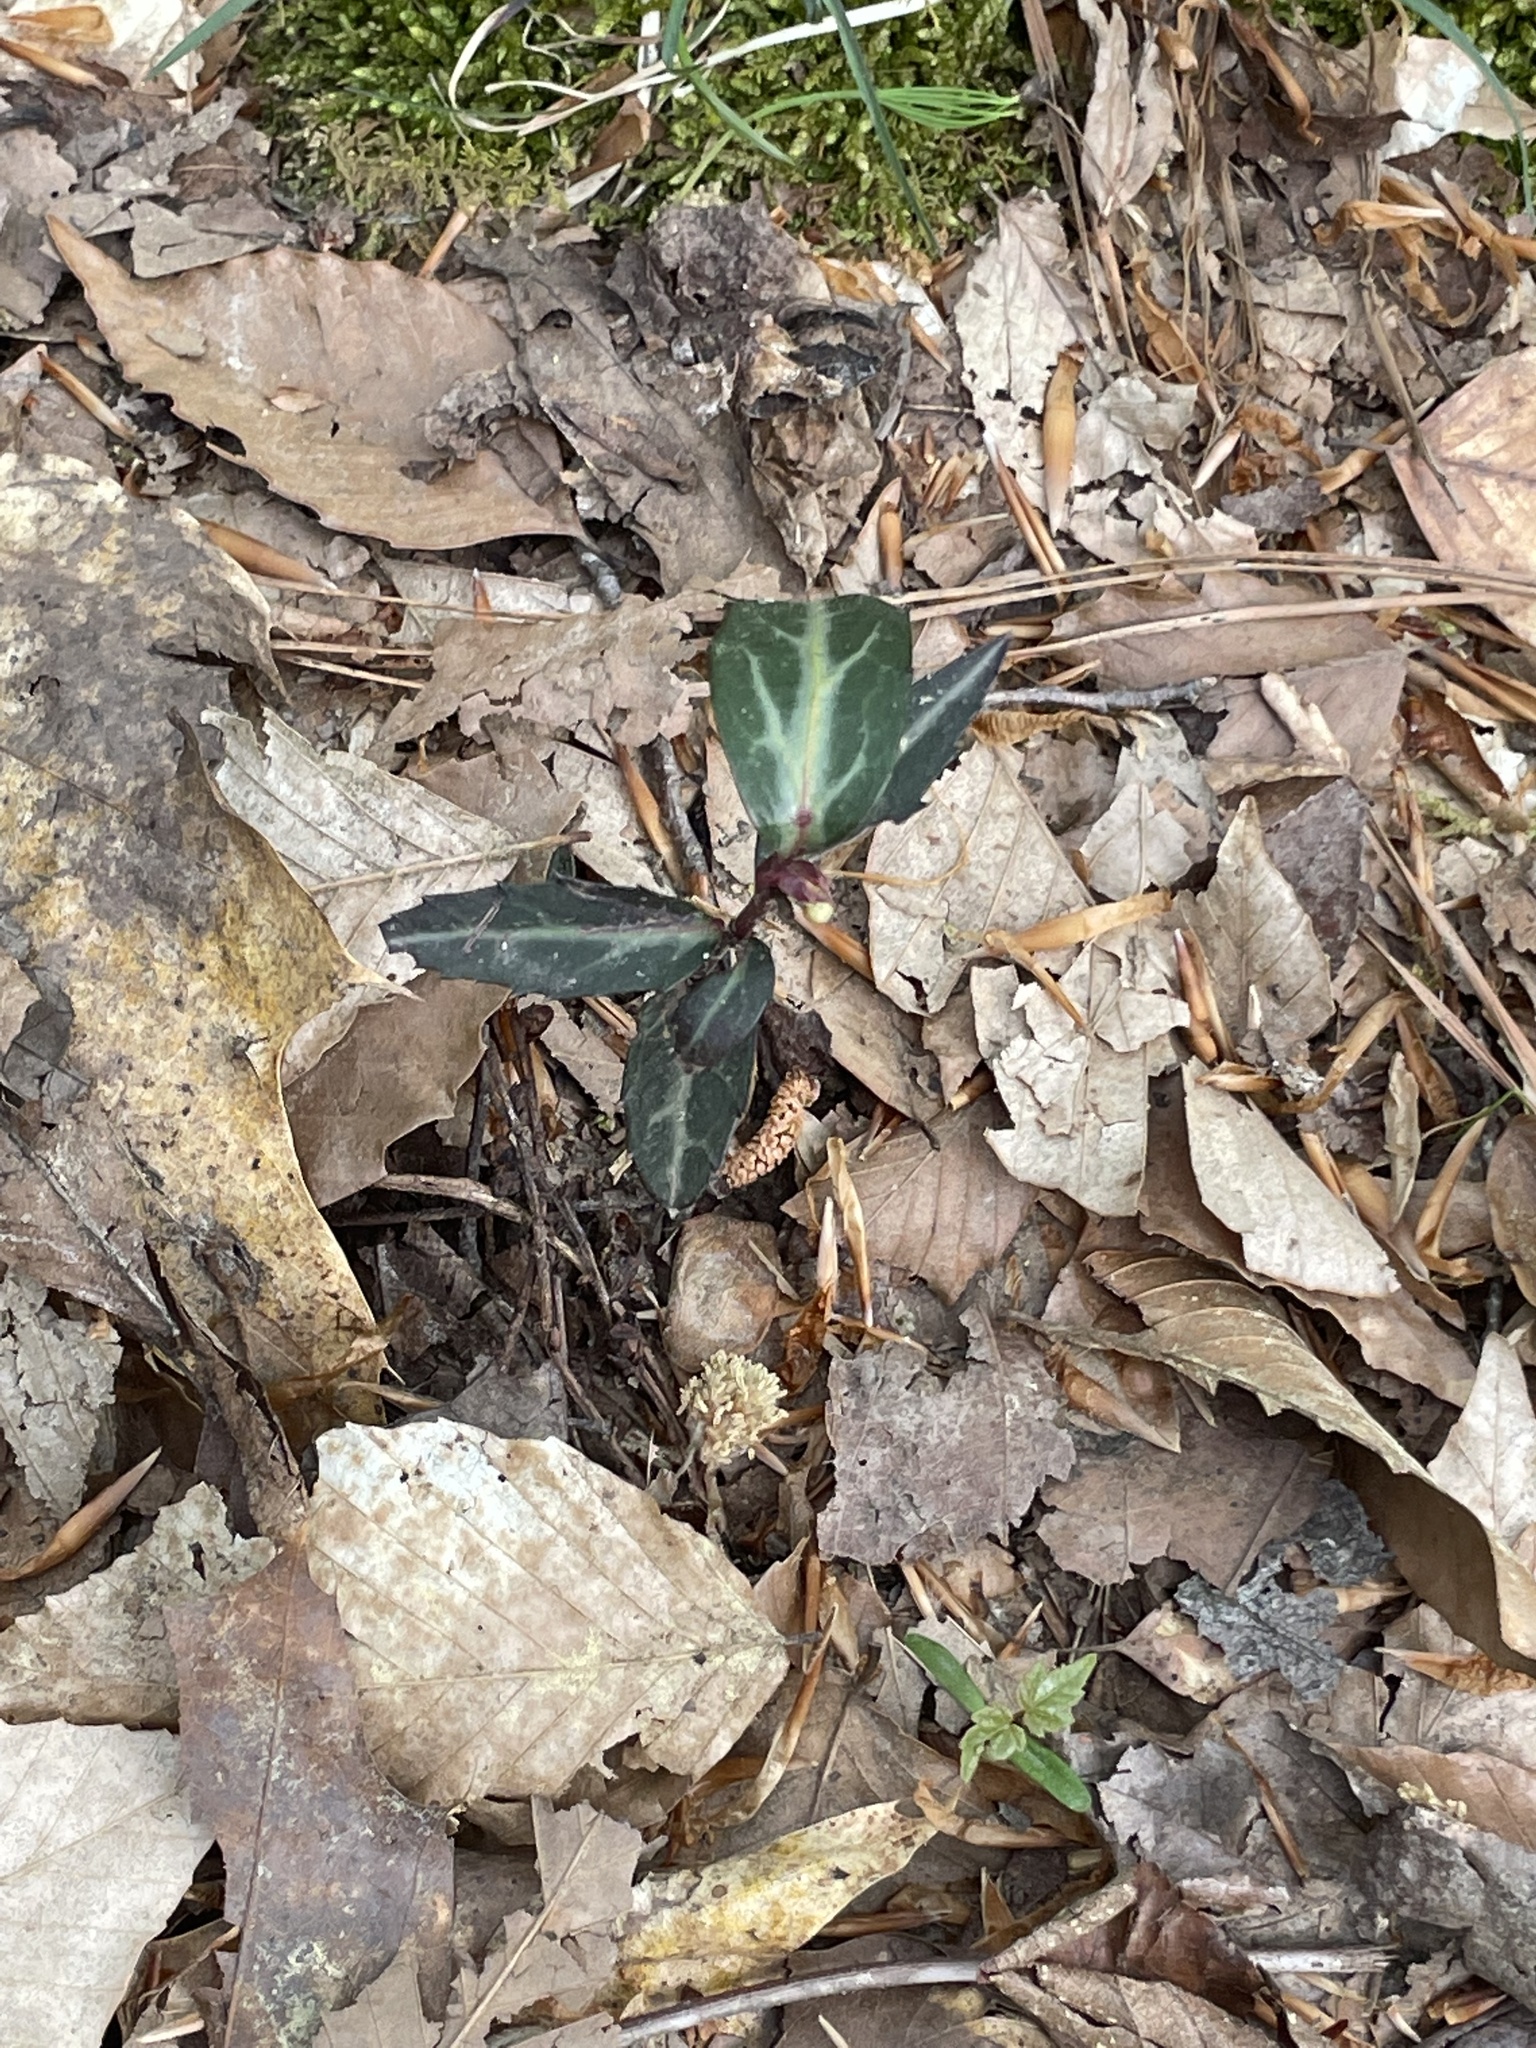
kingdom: Plantae
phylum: Tracheophyta
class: Magnoliopsida
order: Ericales
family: Ericaceae
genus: Chimaphila
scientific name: Chimaphila maculata
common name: Spotted pipsissewa
